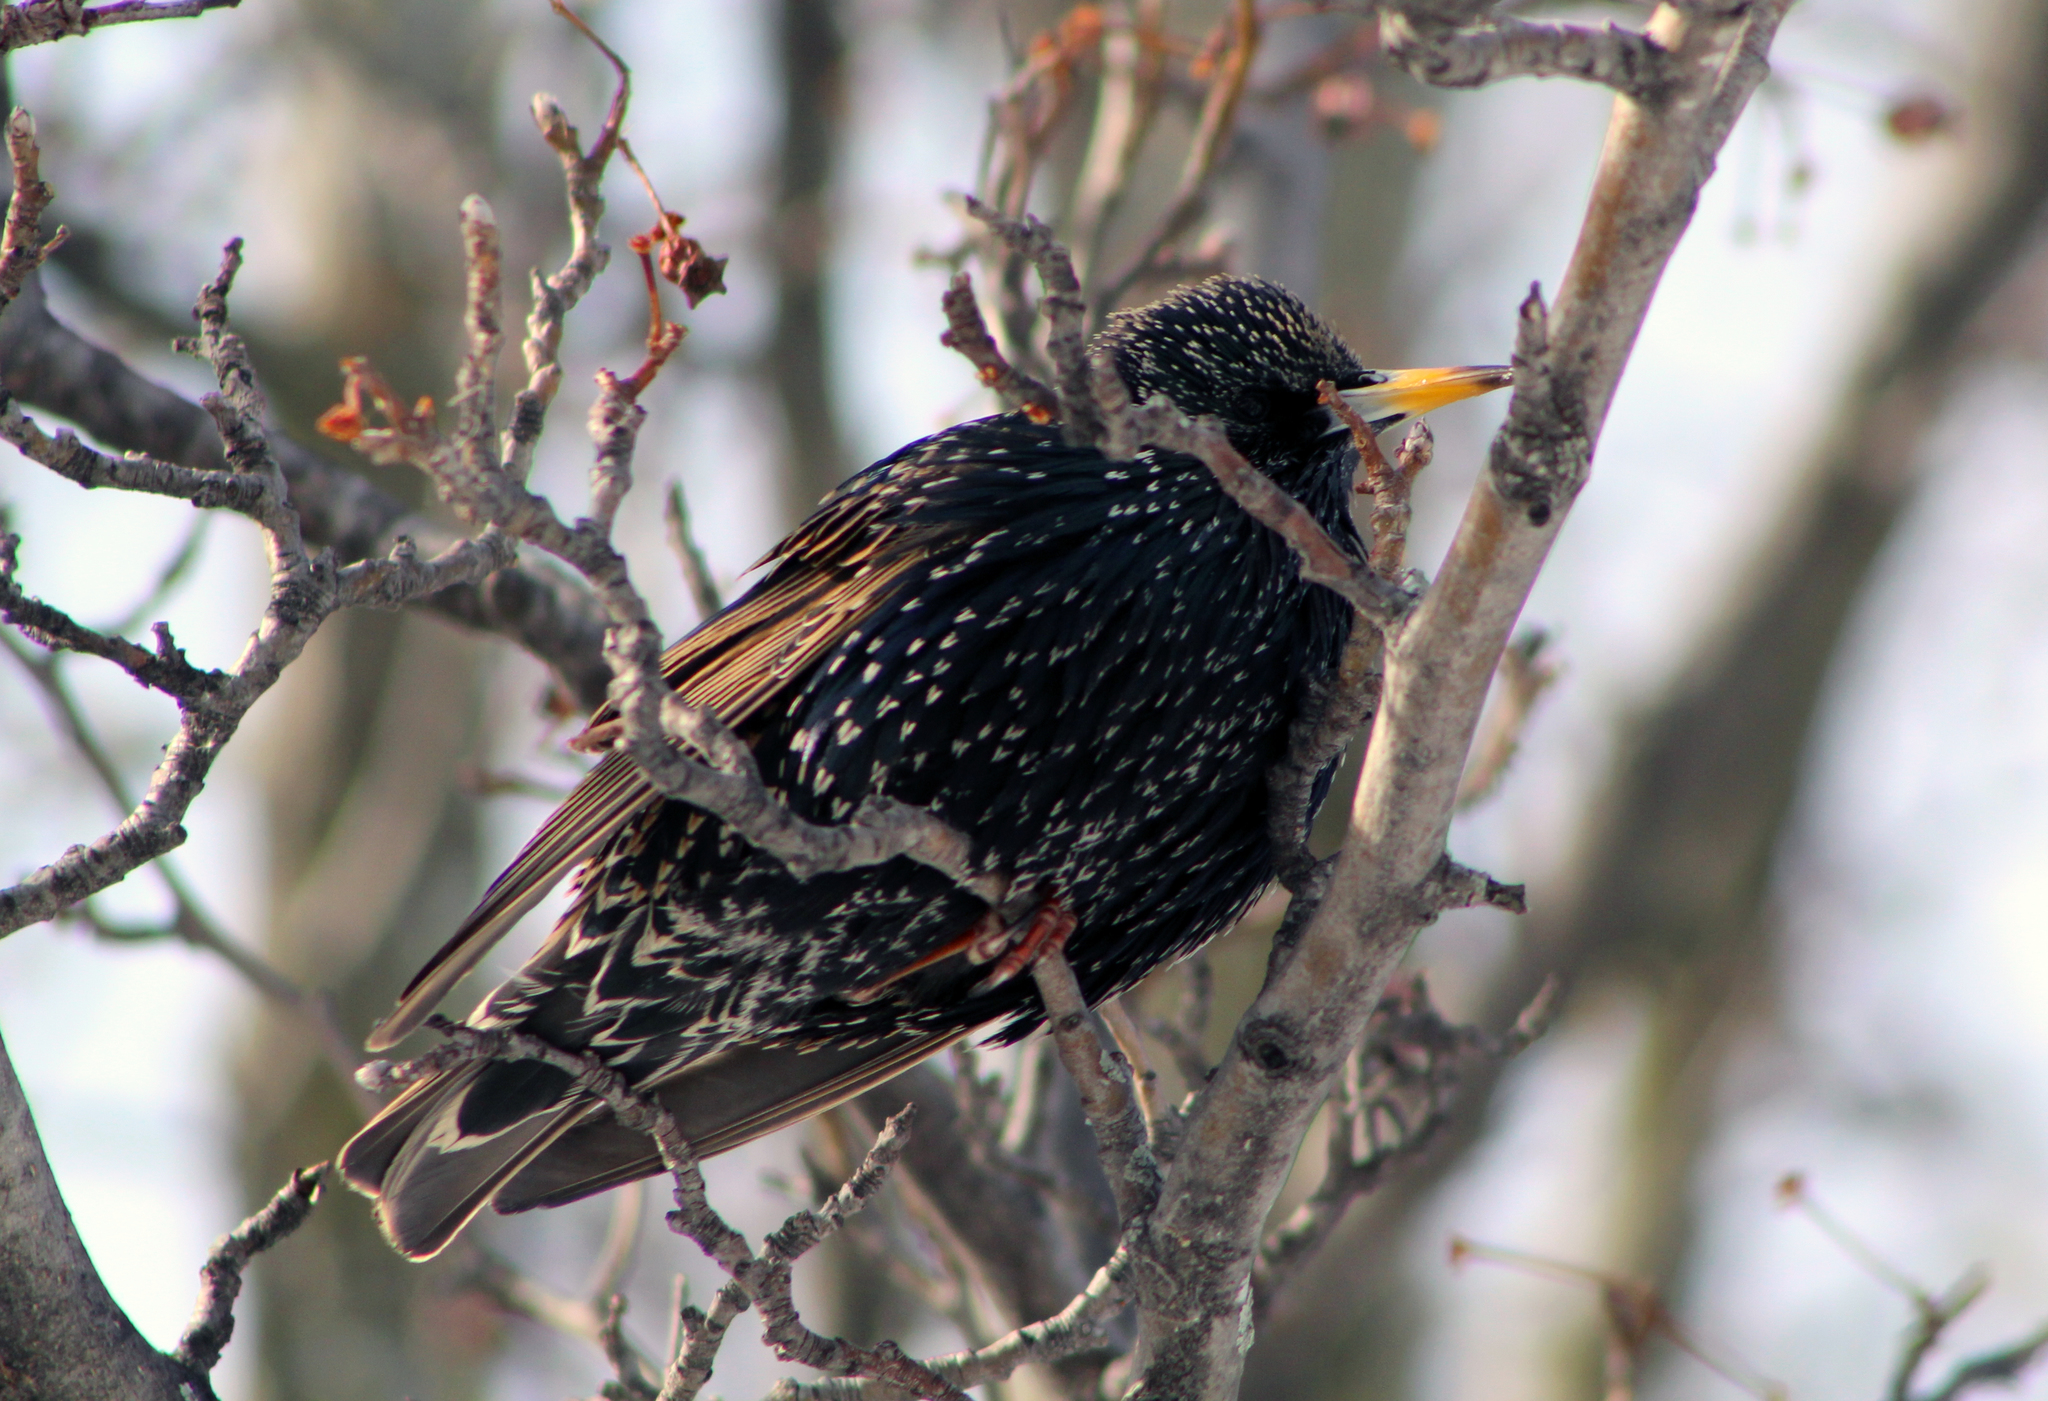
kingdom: Animalia
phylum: Chordata
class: Aves
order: Passeriformes
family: Sturnidae
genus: Sturnus
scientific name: Sturnus vulgaris
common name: Common starling
